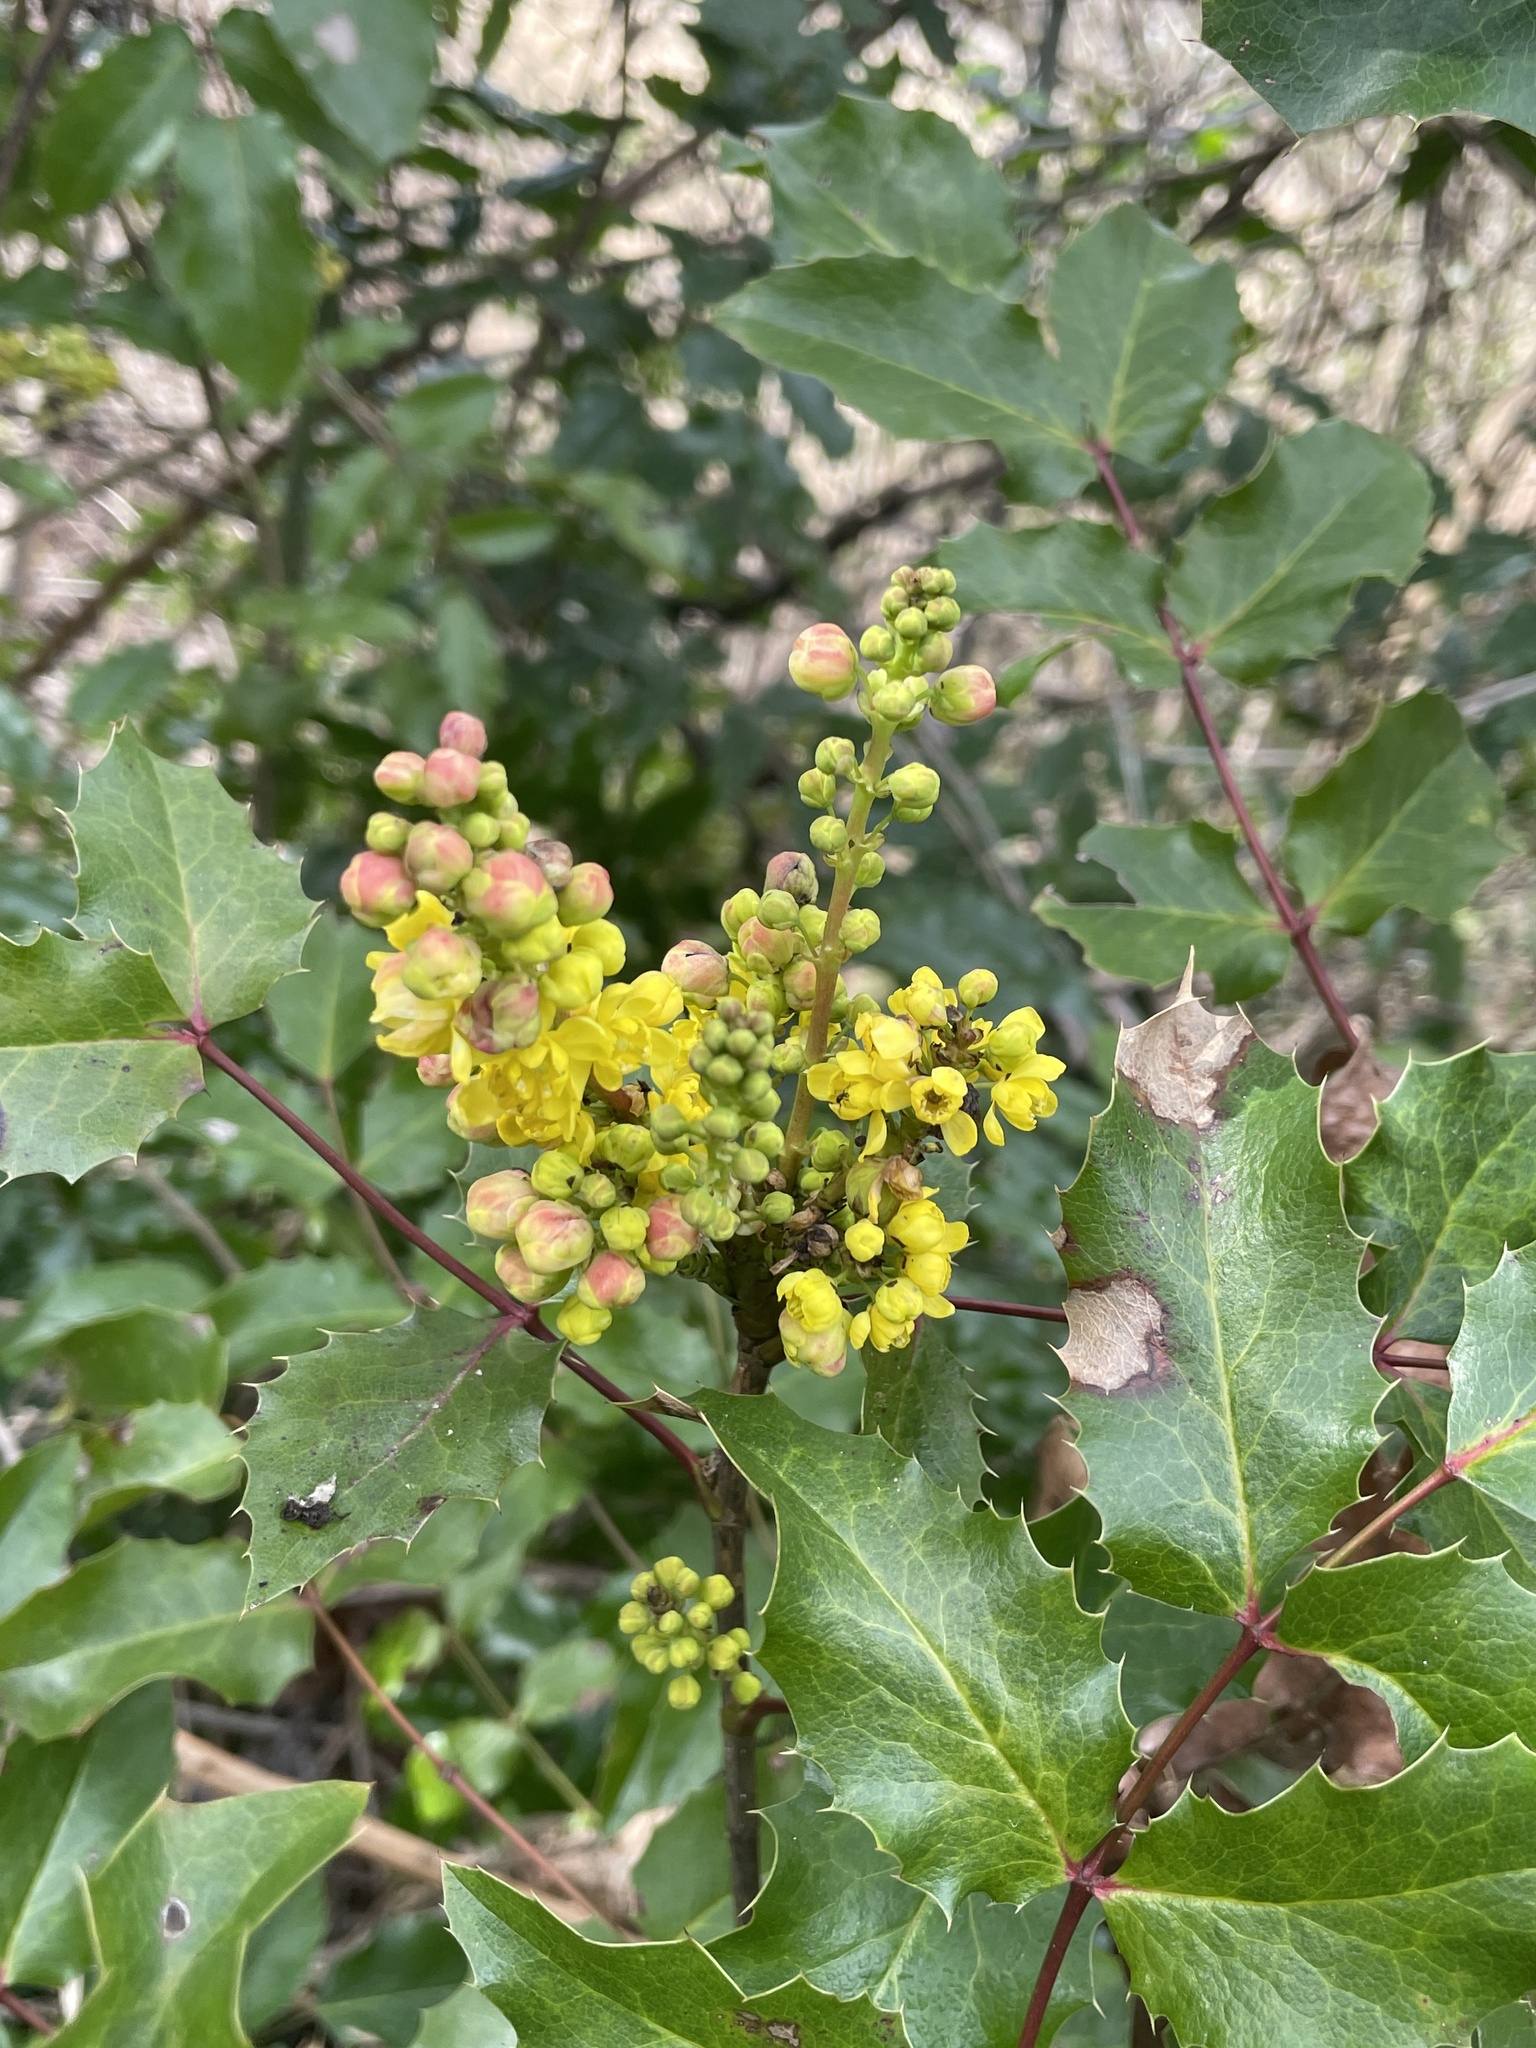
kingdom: Plantae
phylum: Tracheophyta
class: Magnoliopsida
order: Ranunculales
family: Berberidaceae
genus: Mahonia
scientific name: Mahonia aquifolium
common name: Oregon-grape
